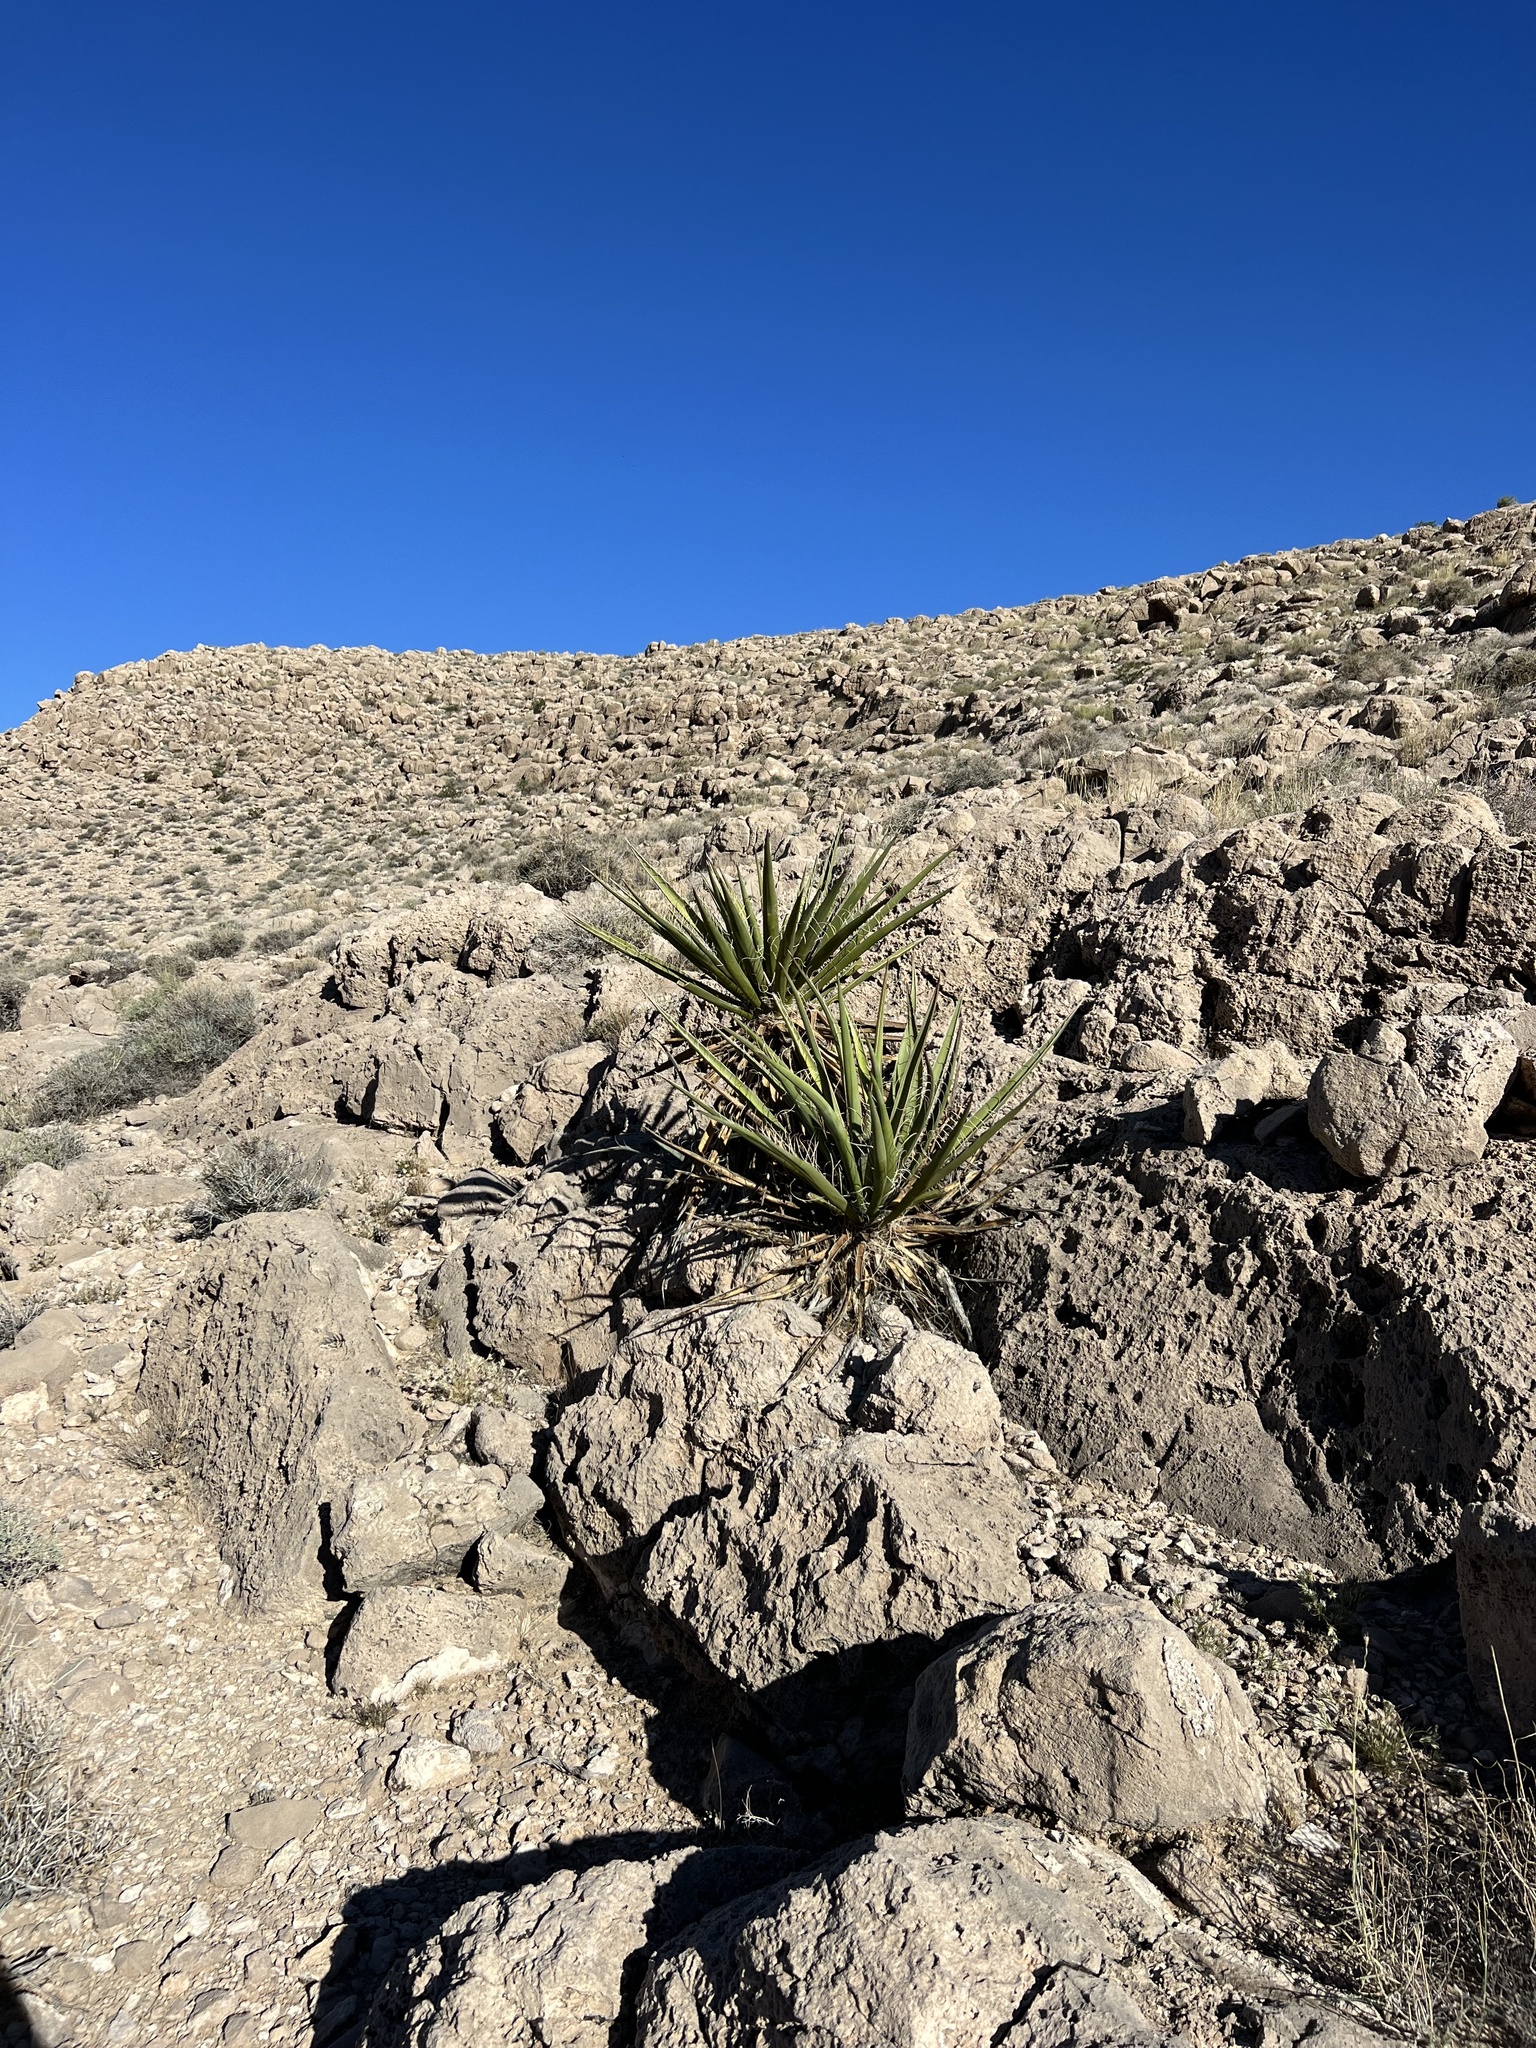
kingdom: Plantae
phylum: Tracheophyta
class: Liliopsida
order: Asparagales
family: Asparagaceae
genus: Yucca
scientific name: Yucca schidigera
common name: Mojave yucca
